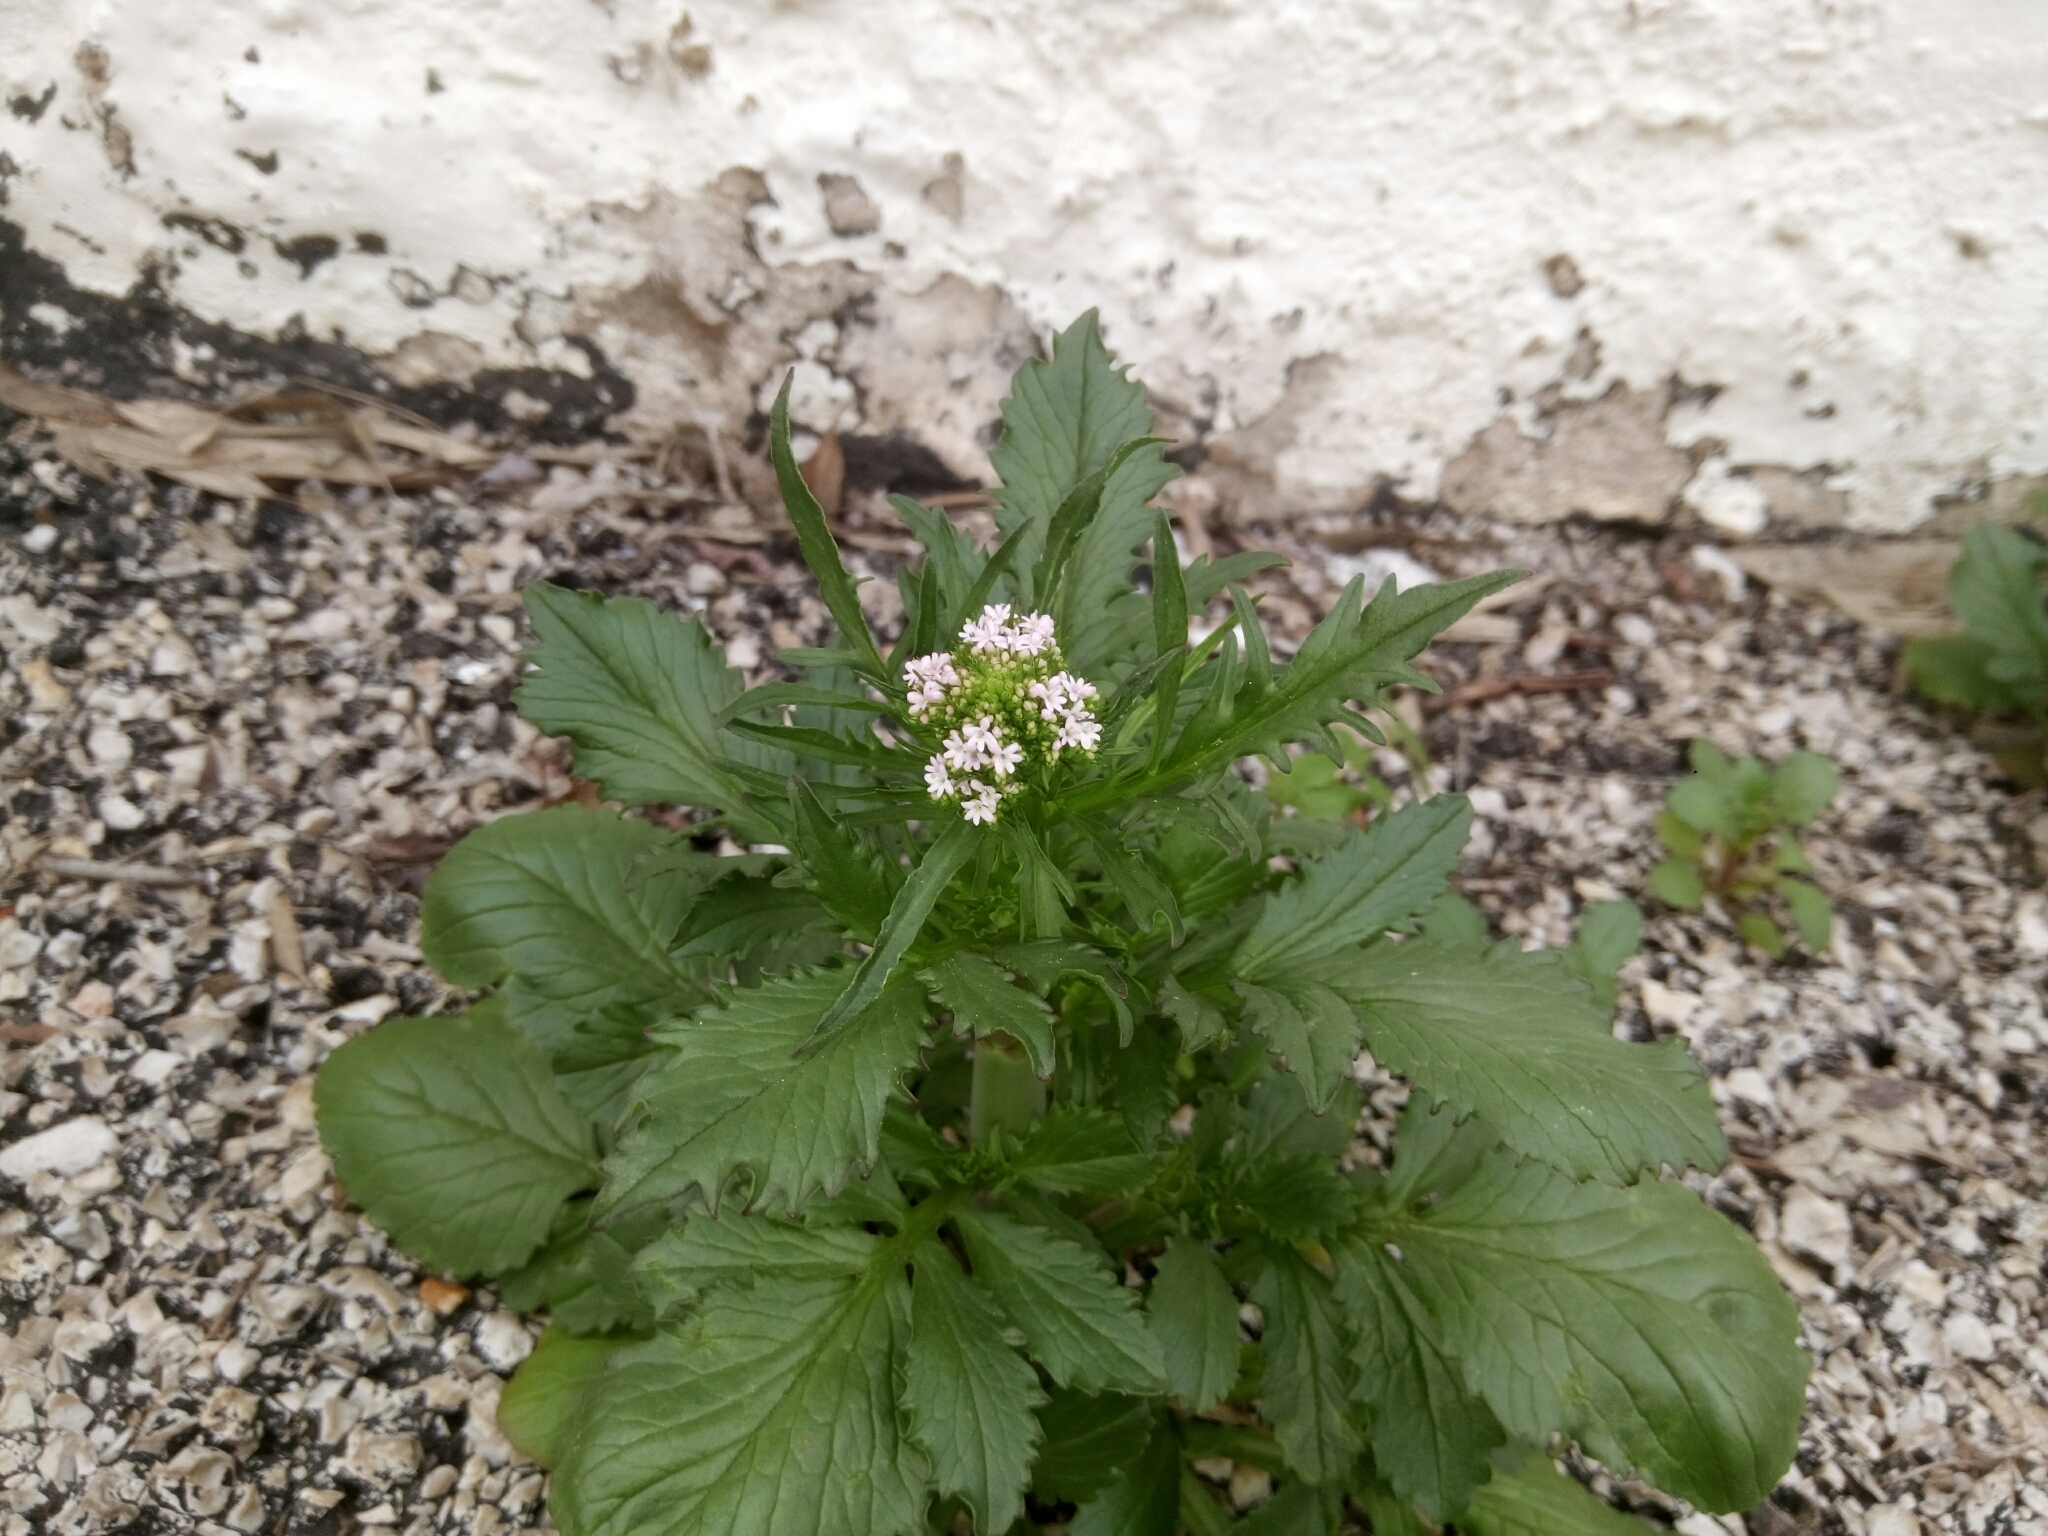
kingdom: Plantae
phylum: Tracheophyta
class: Magnoliopsida
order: Dipsacales
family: Caprifoliaceae
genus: Centranthus
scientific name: Centranthus calcitrapae
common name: Annual valerian
